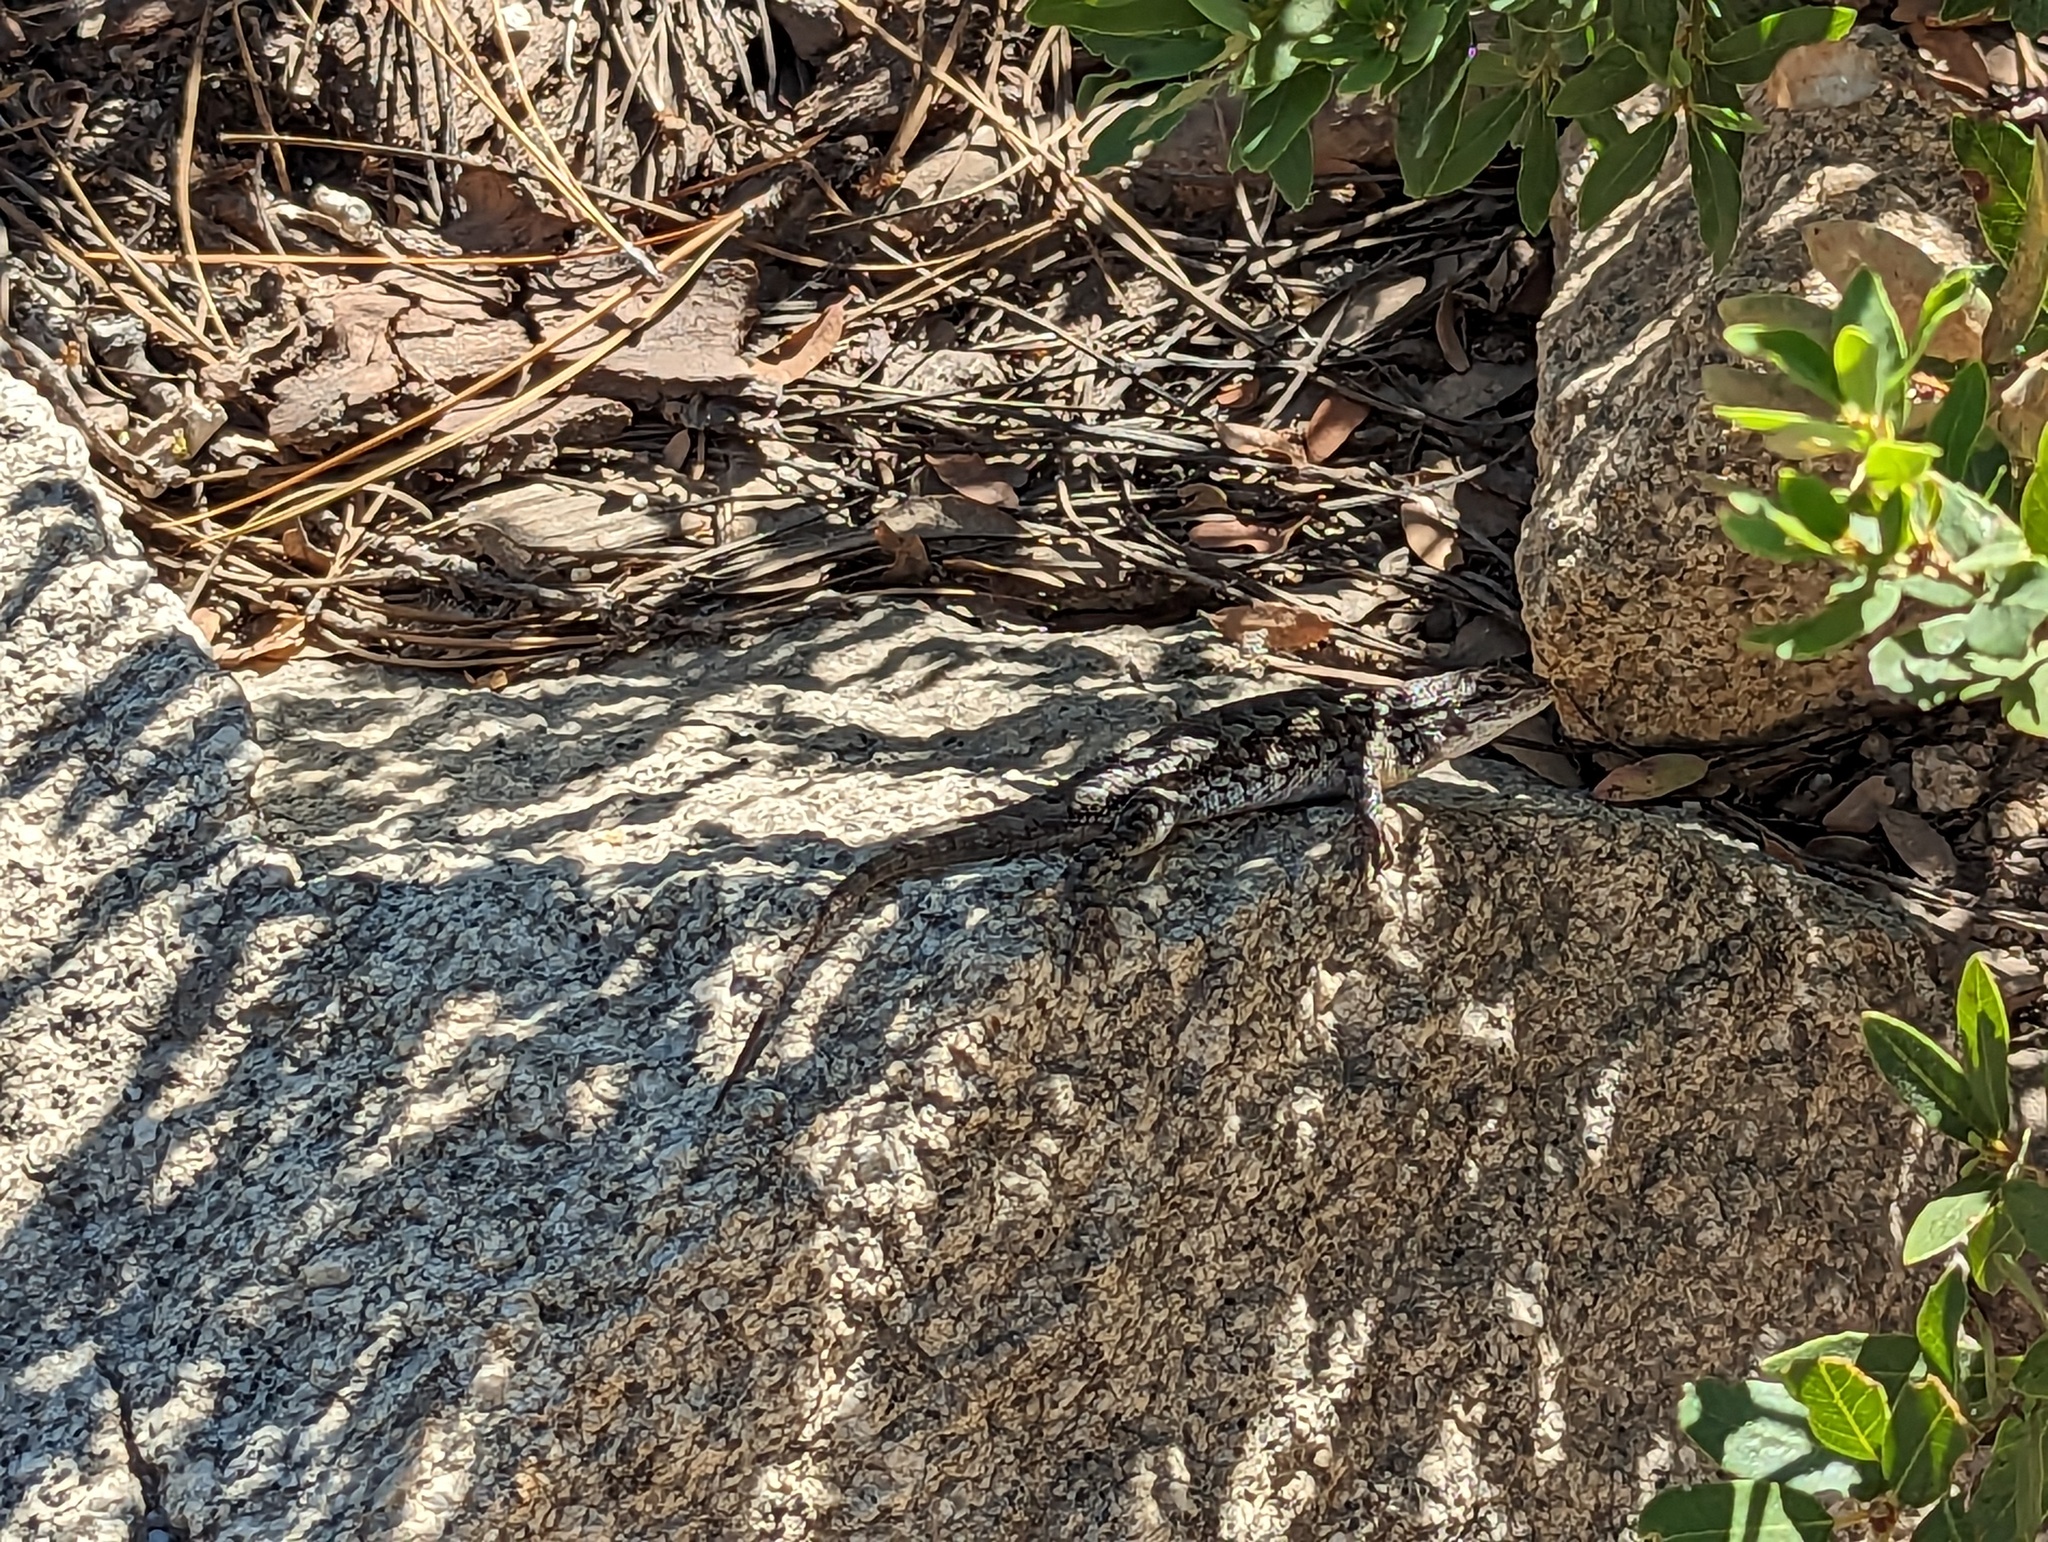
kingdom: Animalia
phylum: Chordata
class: Squamata
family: Phrynosomatidae
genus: Sceloporus
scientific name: Sceloporus occidentalis
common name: Western fence lizard
